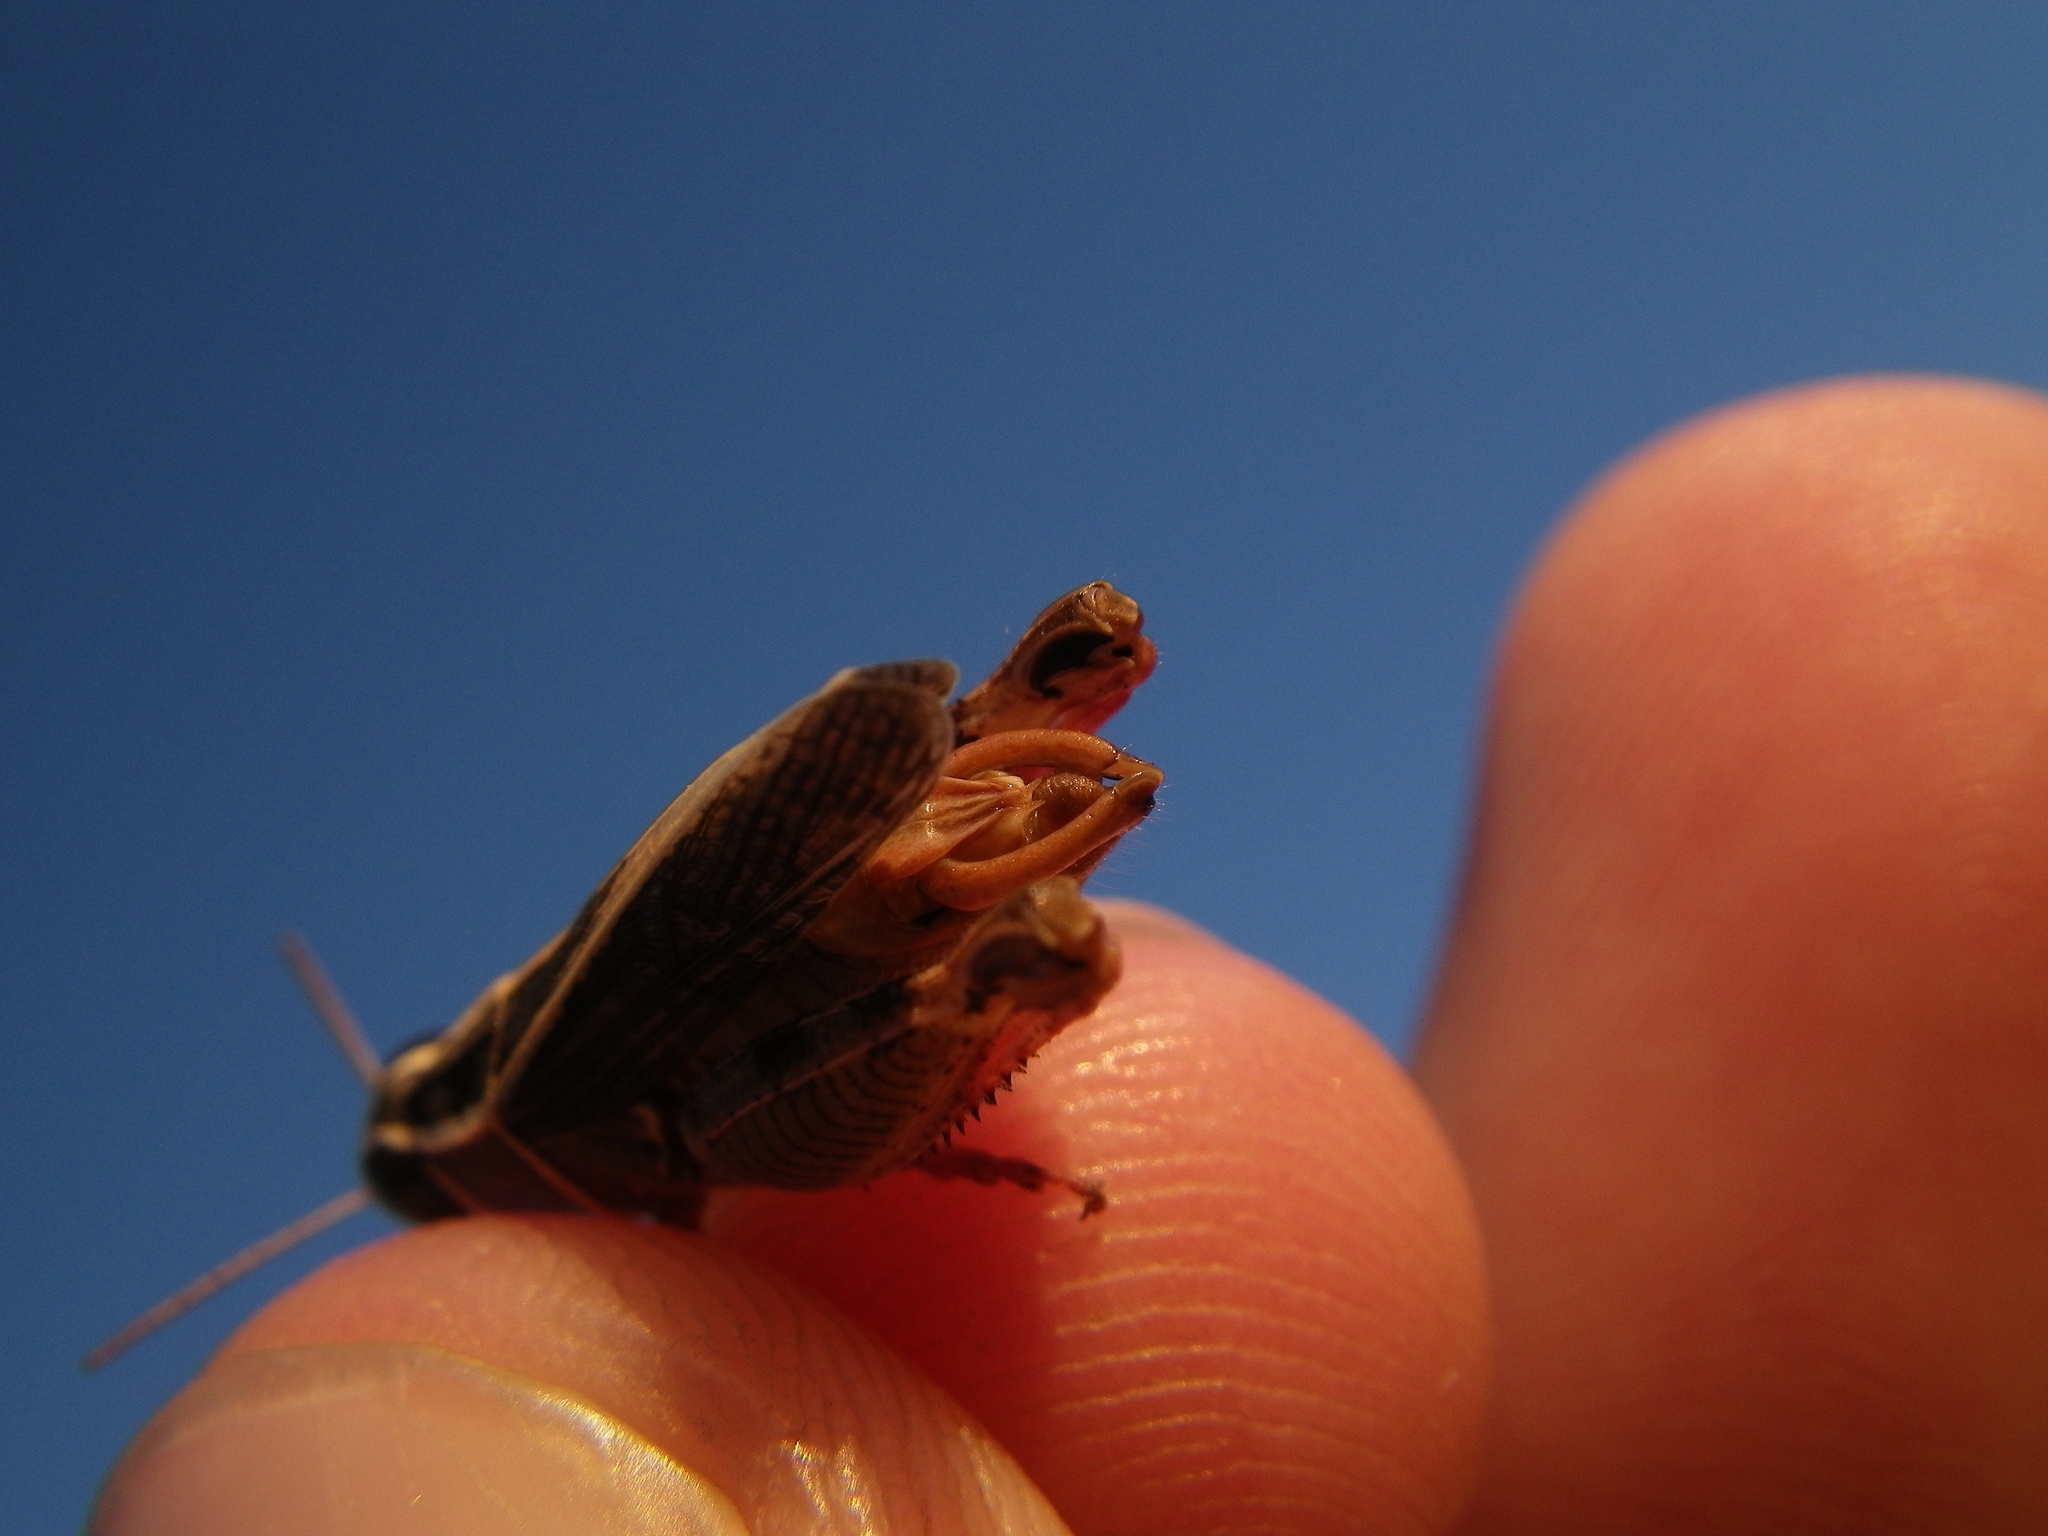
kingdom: Animalia
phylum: Arthropoda
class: Insecta
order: Orthoptera
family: Acrididae
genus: Calliptamus
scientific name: Calliptamus barbarus
